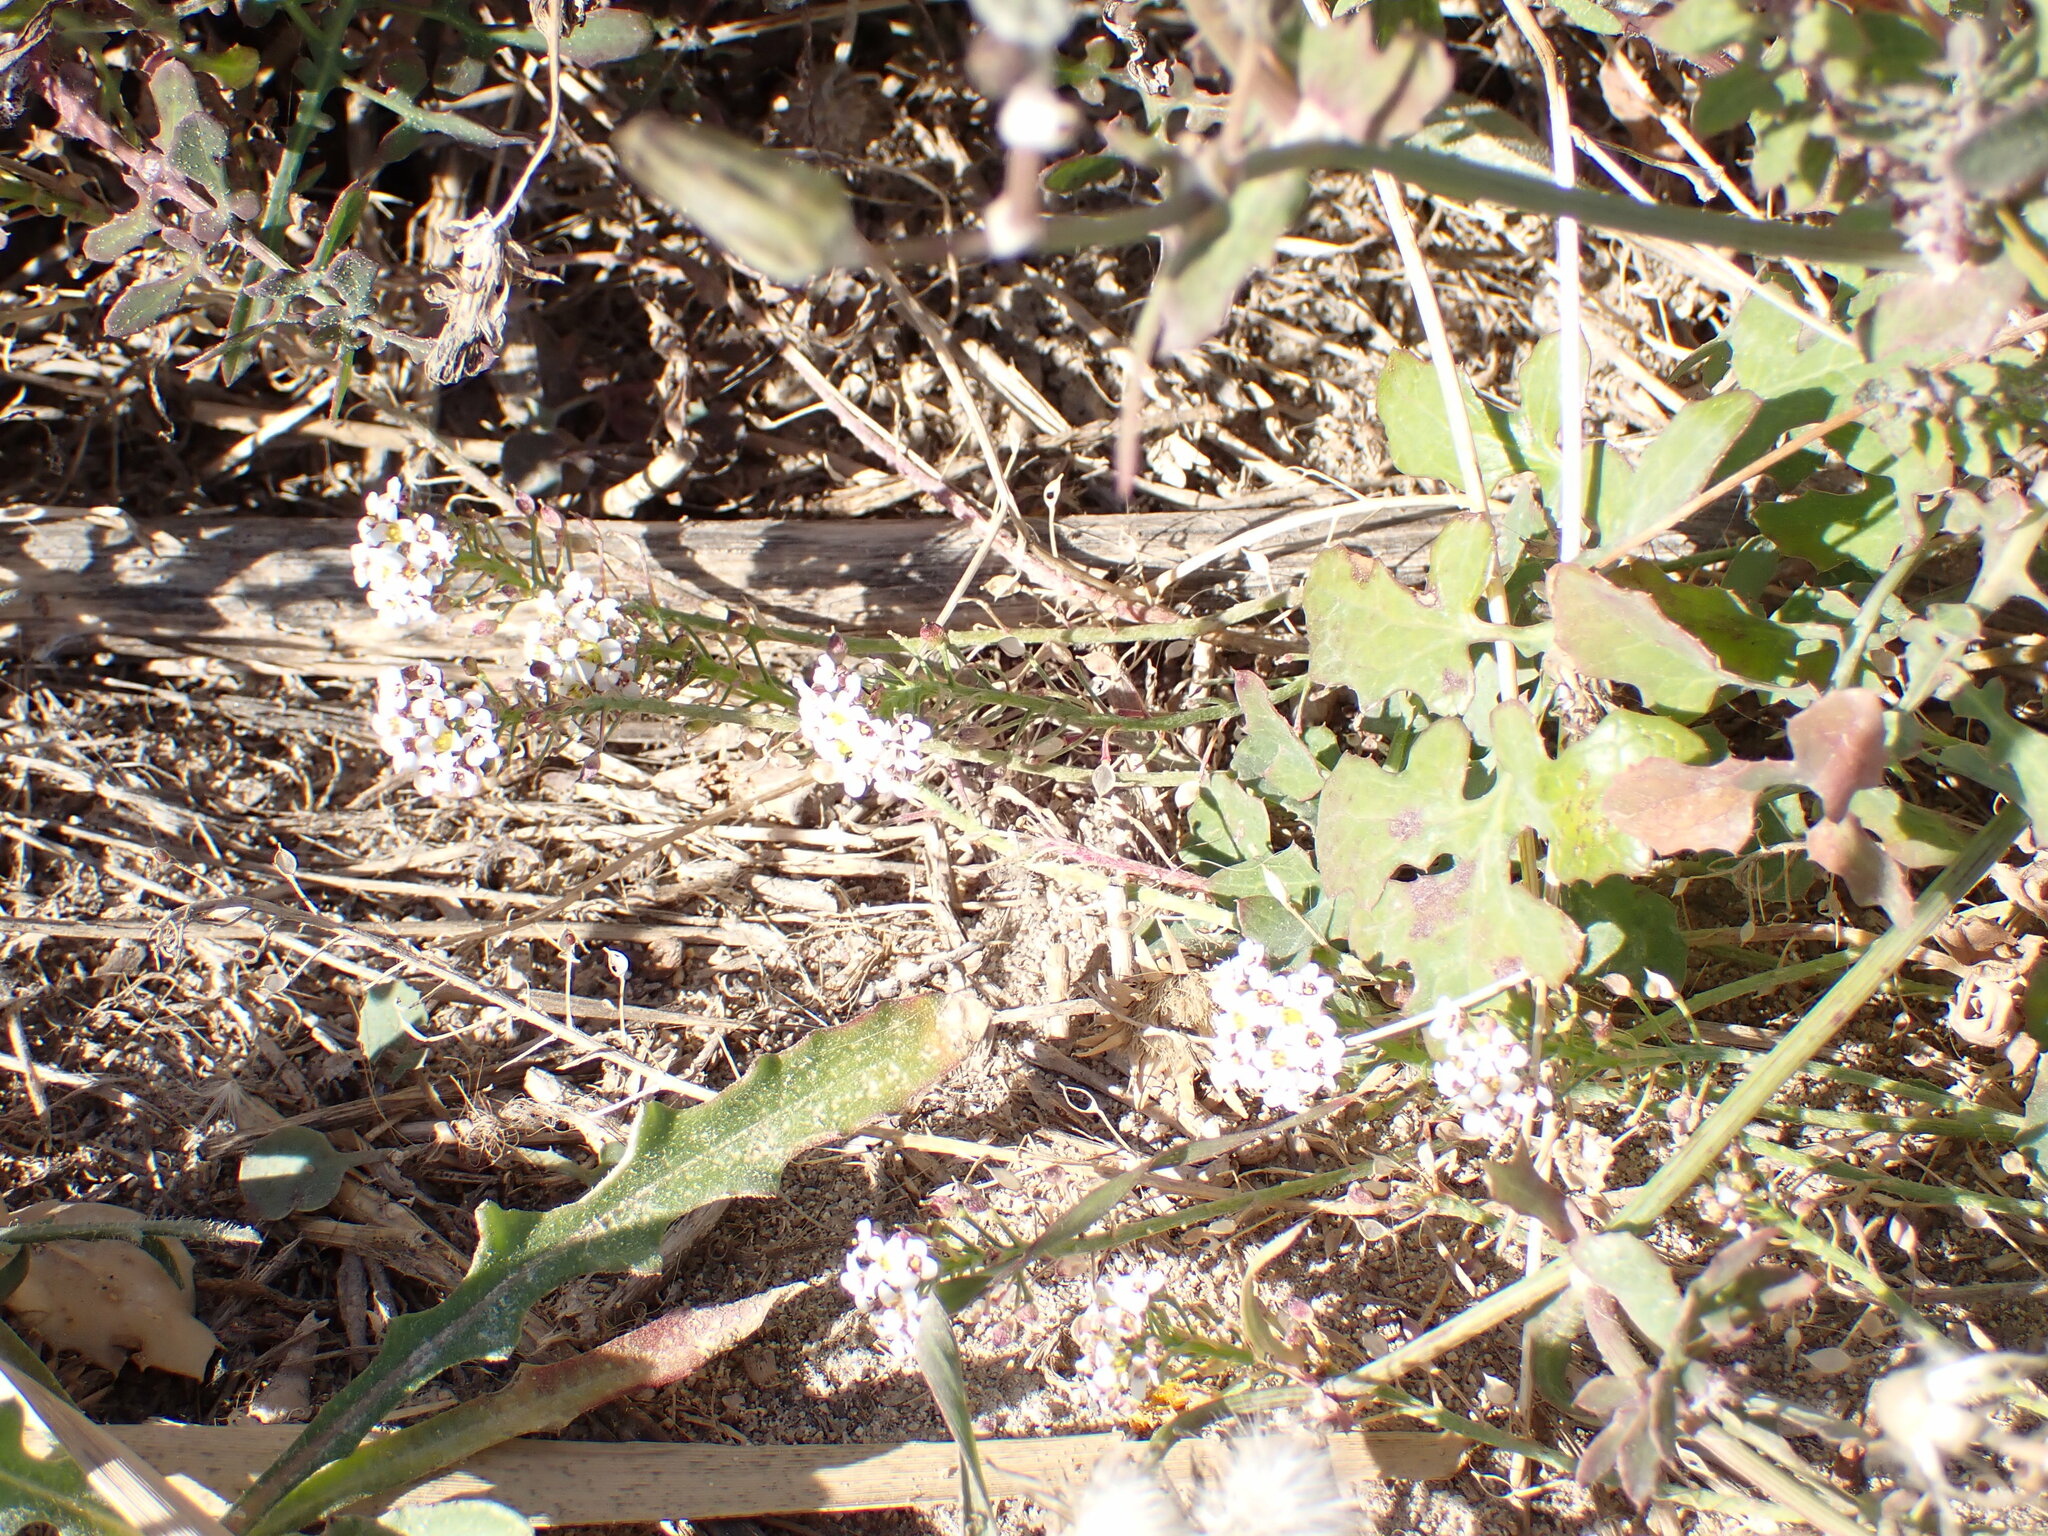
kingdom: Plantae
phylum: Tracheophyta
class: Magnoliopsida
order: Brassicales
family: Brassicaceae
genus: Lobularia
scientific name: Lobularia maritima
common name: Sweet alison
